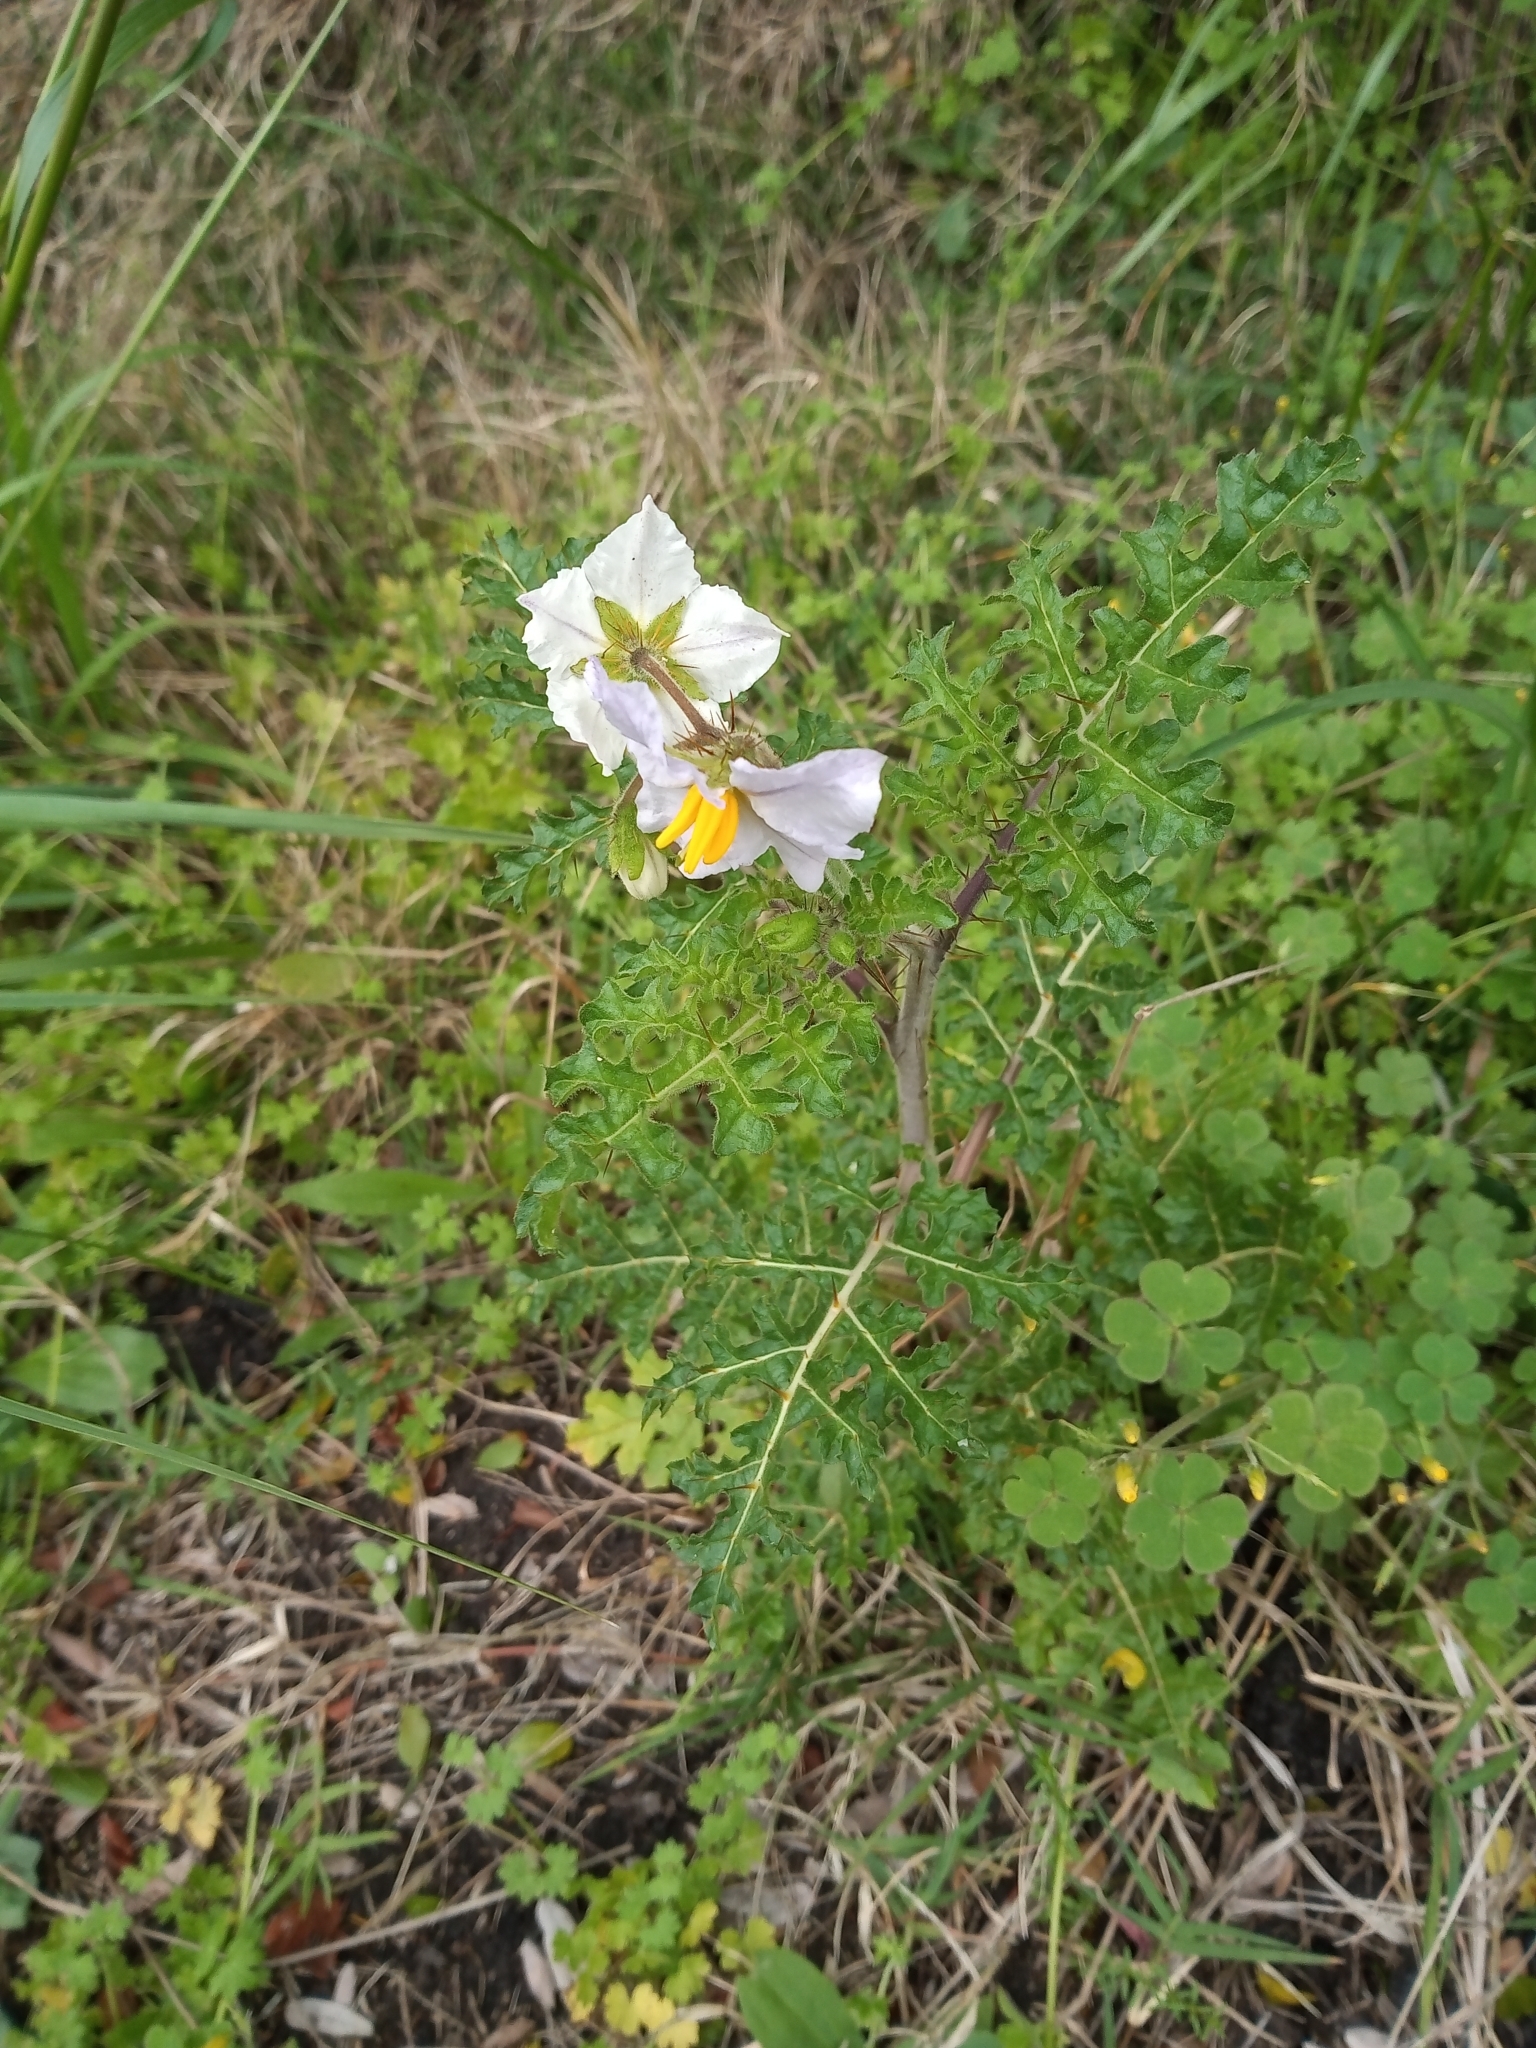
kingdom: Plantae
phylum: Tracheophyta
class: Magnoliopsida
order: Solanales
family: Solanaceae
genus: Solanum
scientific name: Solanum sisymbriifolium
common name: Red buffalo-bur
